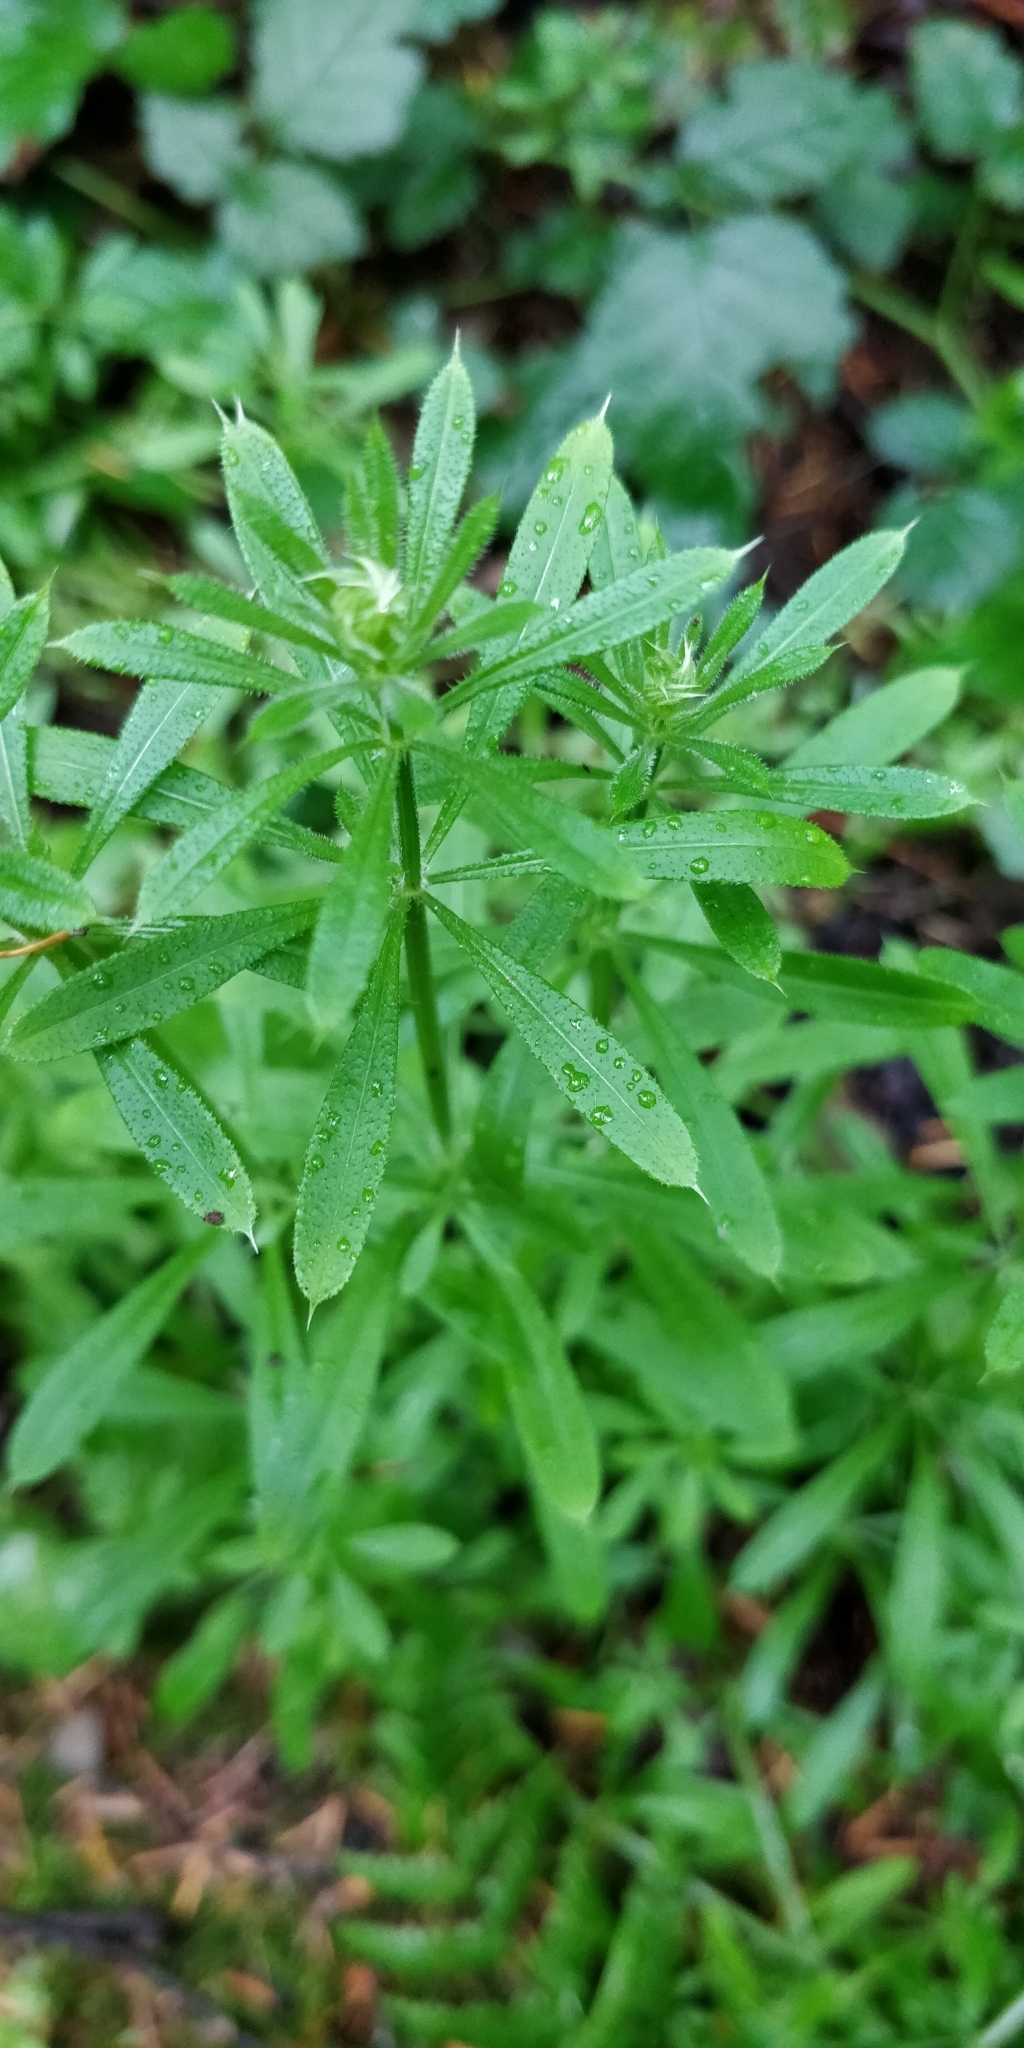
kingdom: Plantae
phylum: Tracheophyta
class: Magnoliopsida
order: Gentianales
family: Rubiaceae
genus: Galium
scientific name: Galium aparine
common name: Cleavers
